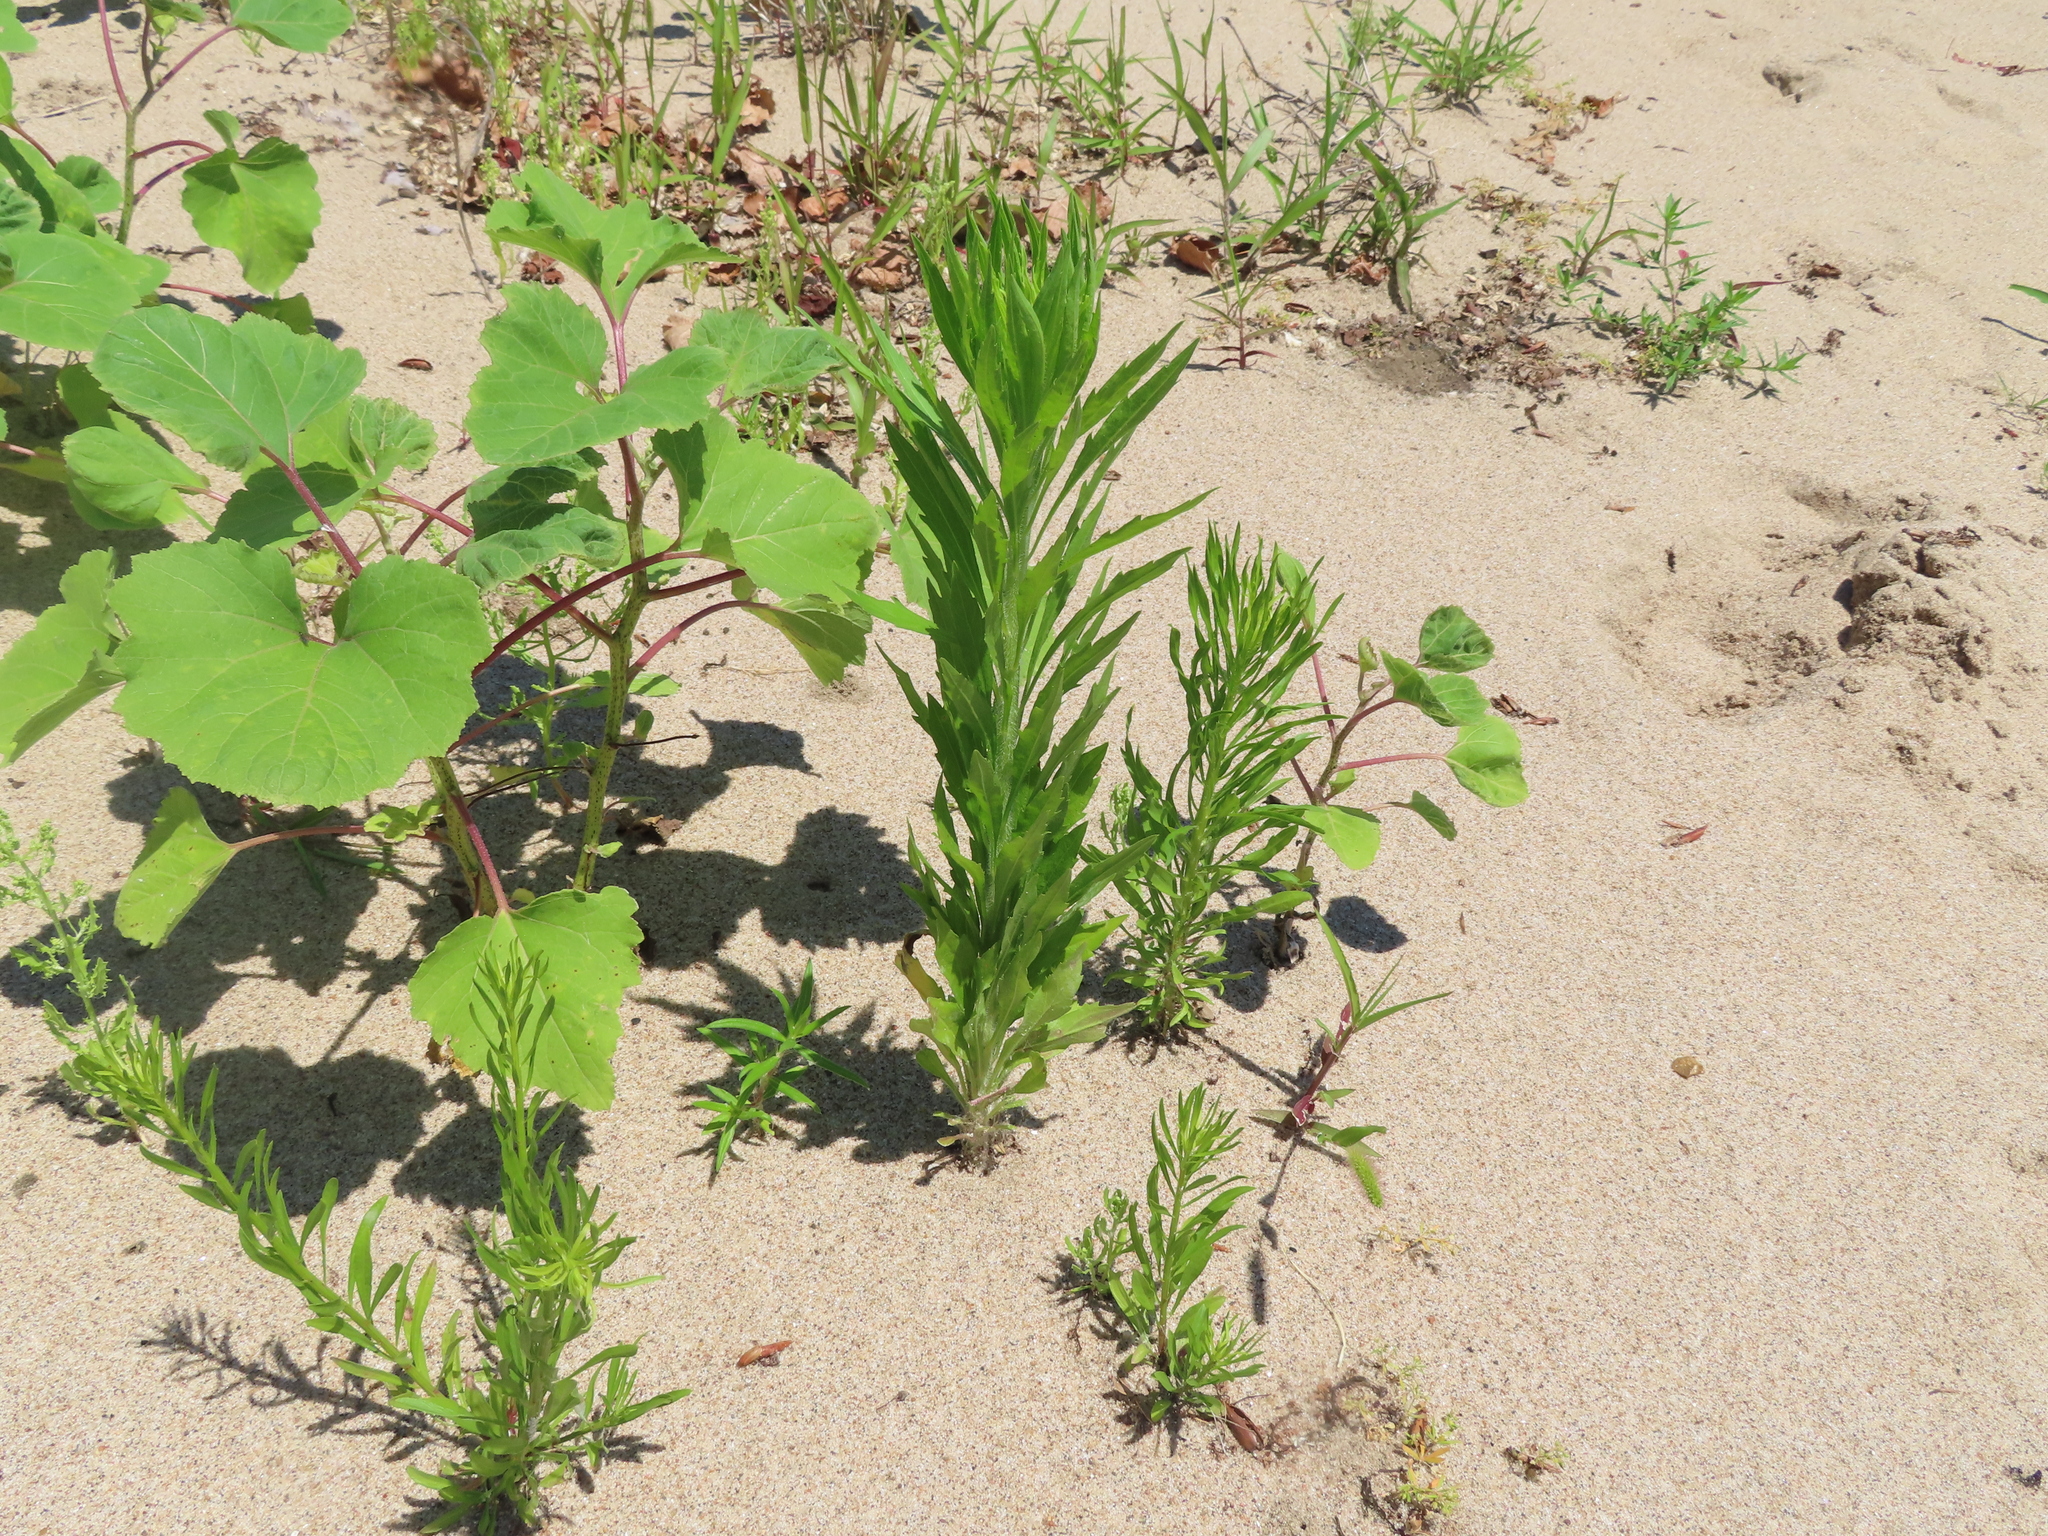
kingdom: Plantae
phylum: Tracheophyta
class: Magnoliopsida
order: Asterales
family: Asteraceae
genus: Xanthium
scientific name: Xanthium
